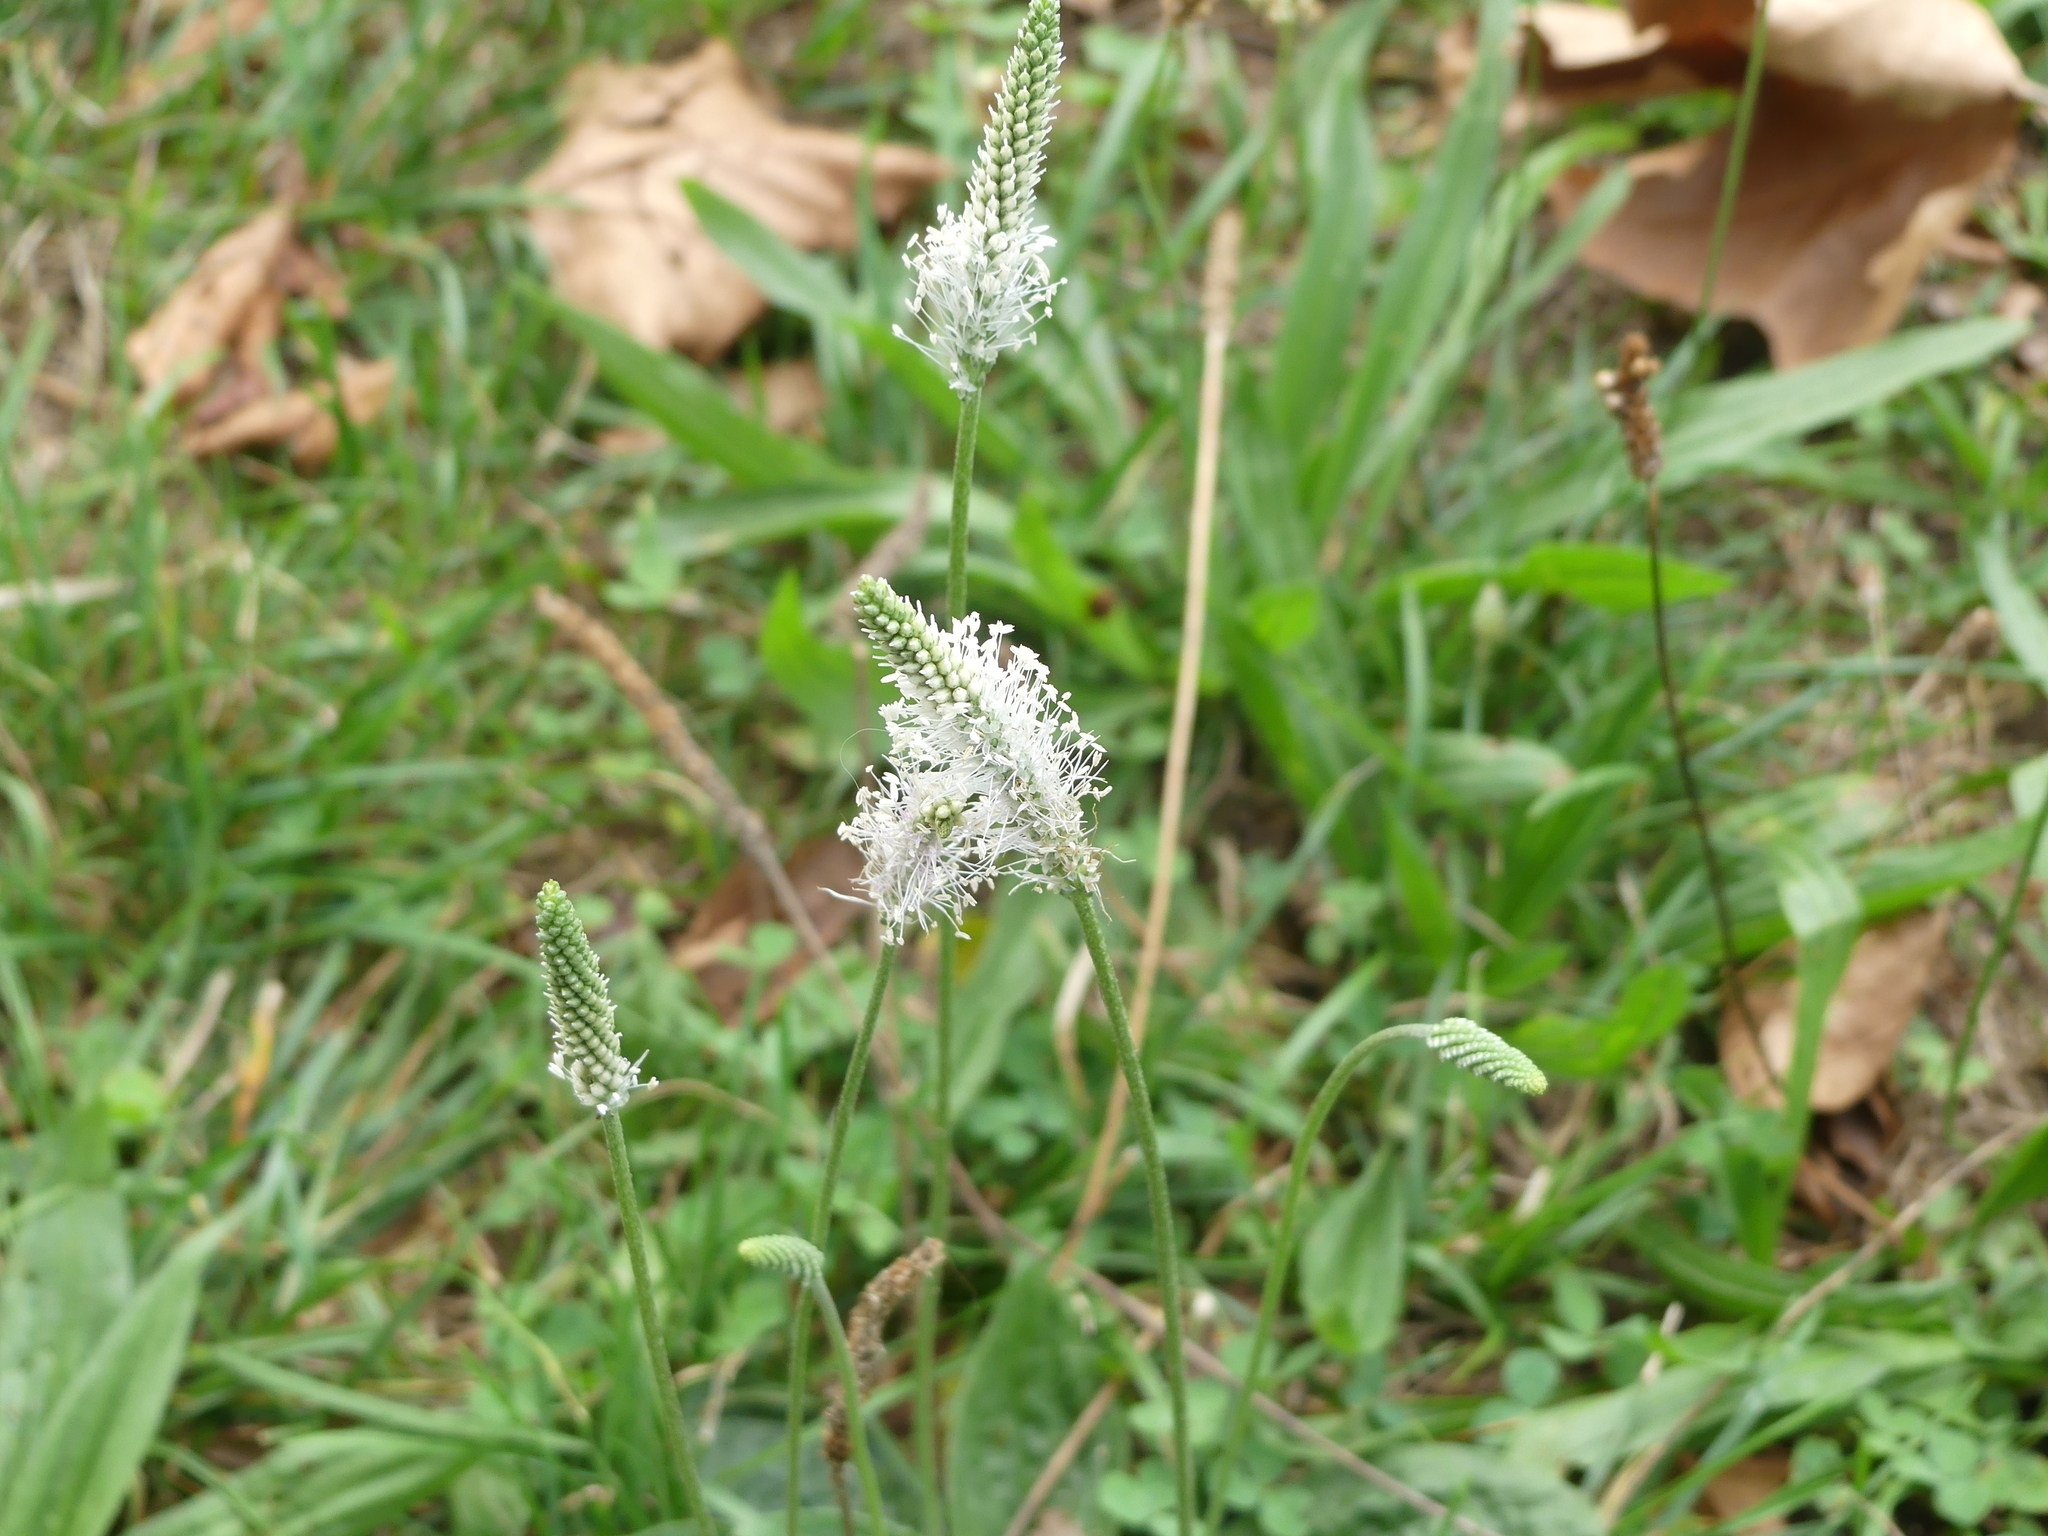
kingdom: Plantae
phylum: Tracheophyta
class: Magnoliopsida
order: Lamiales
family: Plantaginaceae
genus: Plantago
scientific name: Plantago media
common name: Hoary plantain
